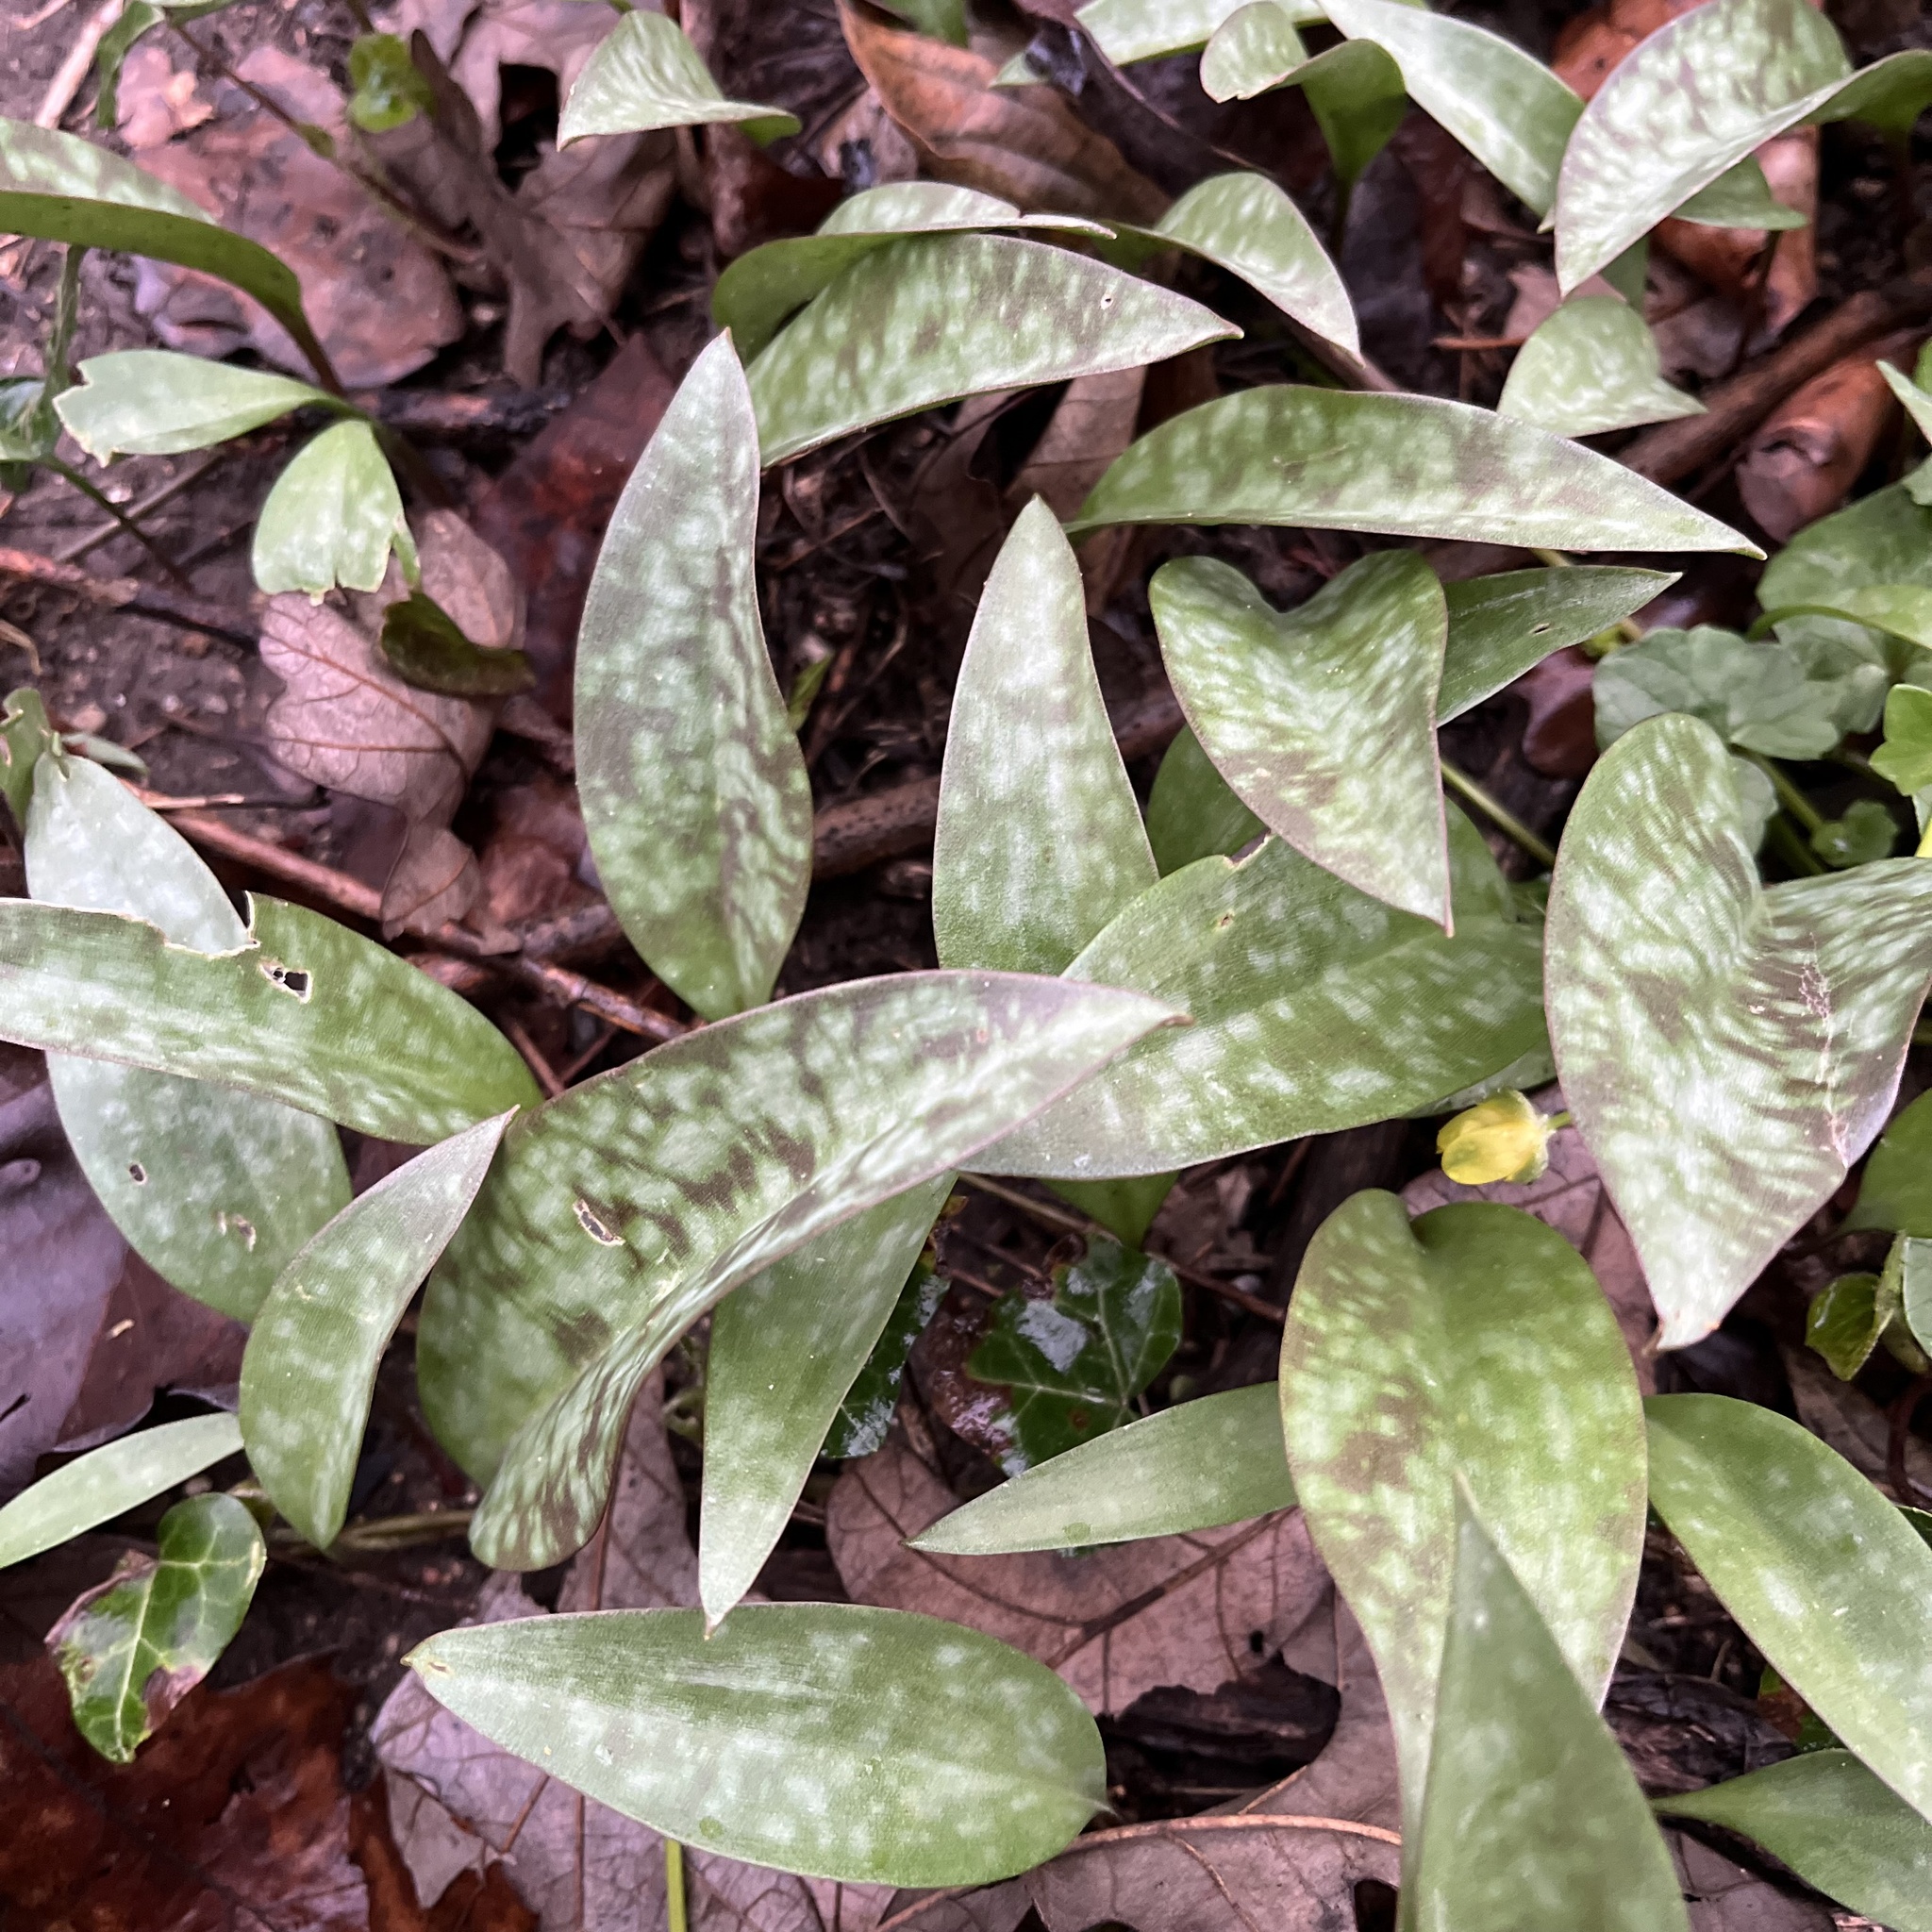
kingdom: Plantae
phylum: Tracheophyta
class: Liliopsida
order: Liliales
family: Liliaceae
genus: Erythronium
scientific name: Erythronium americanum
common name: Yellow adder's-tongue
